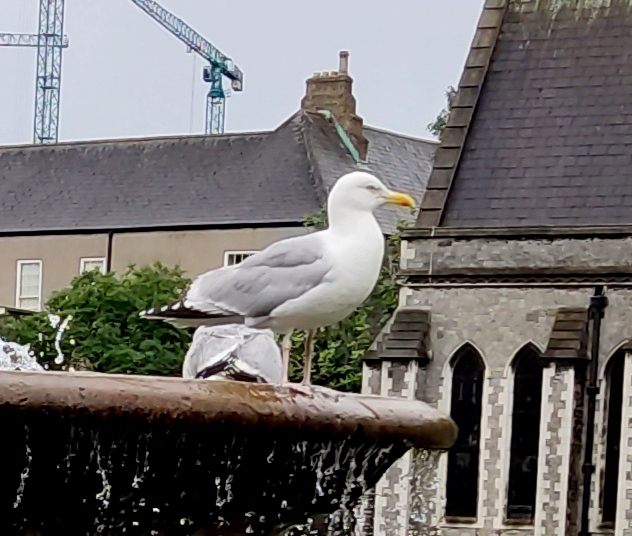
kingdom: Animalia
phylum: Chordata
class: Aves
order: Charadriiformes
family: Laridae
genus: Larus
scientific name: Larus argentatus
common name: Herring gull
